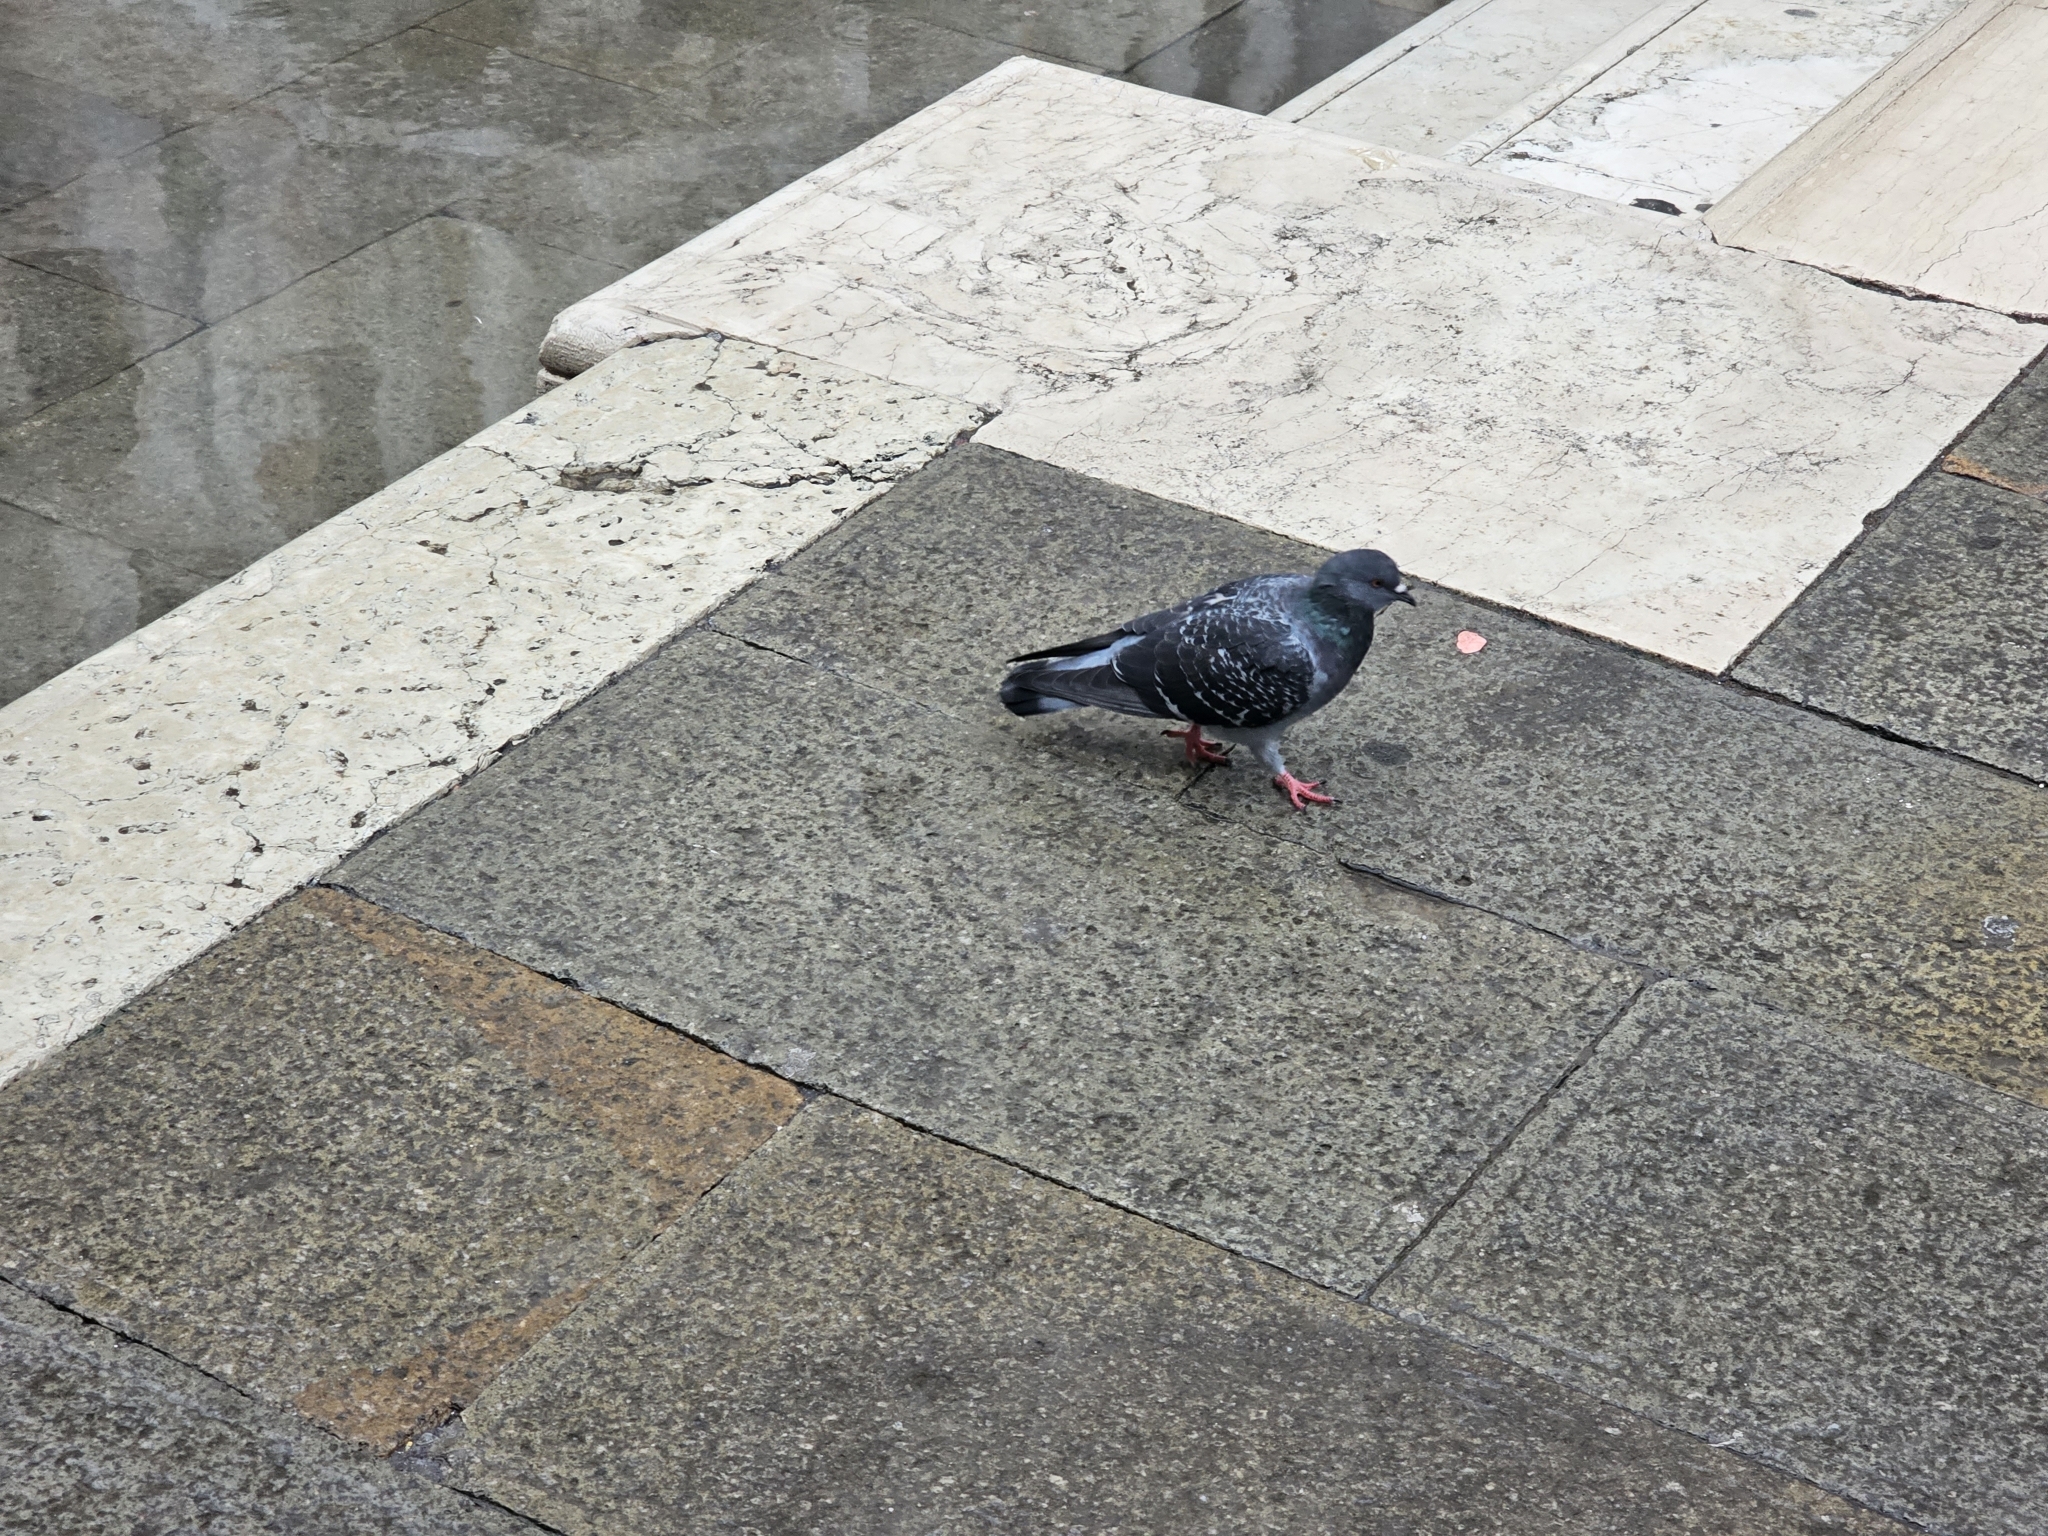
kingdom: Animalia
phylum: Chordata
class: Aves
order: Columbiformes
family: Columbidae
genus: Columba
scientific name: Columba livia
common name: Rock pigeon
